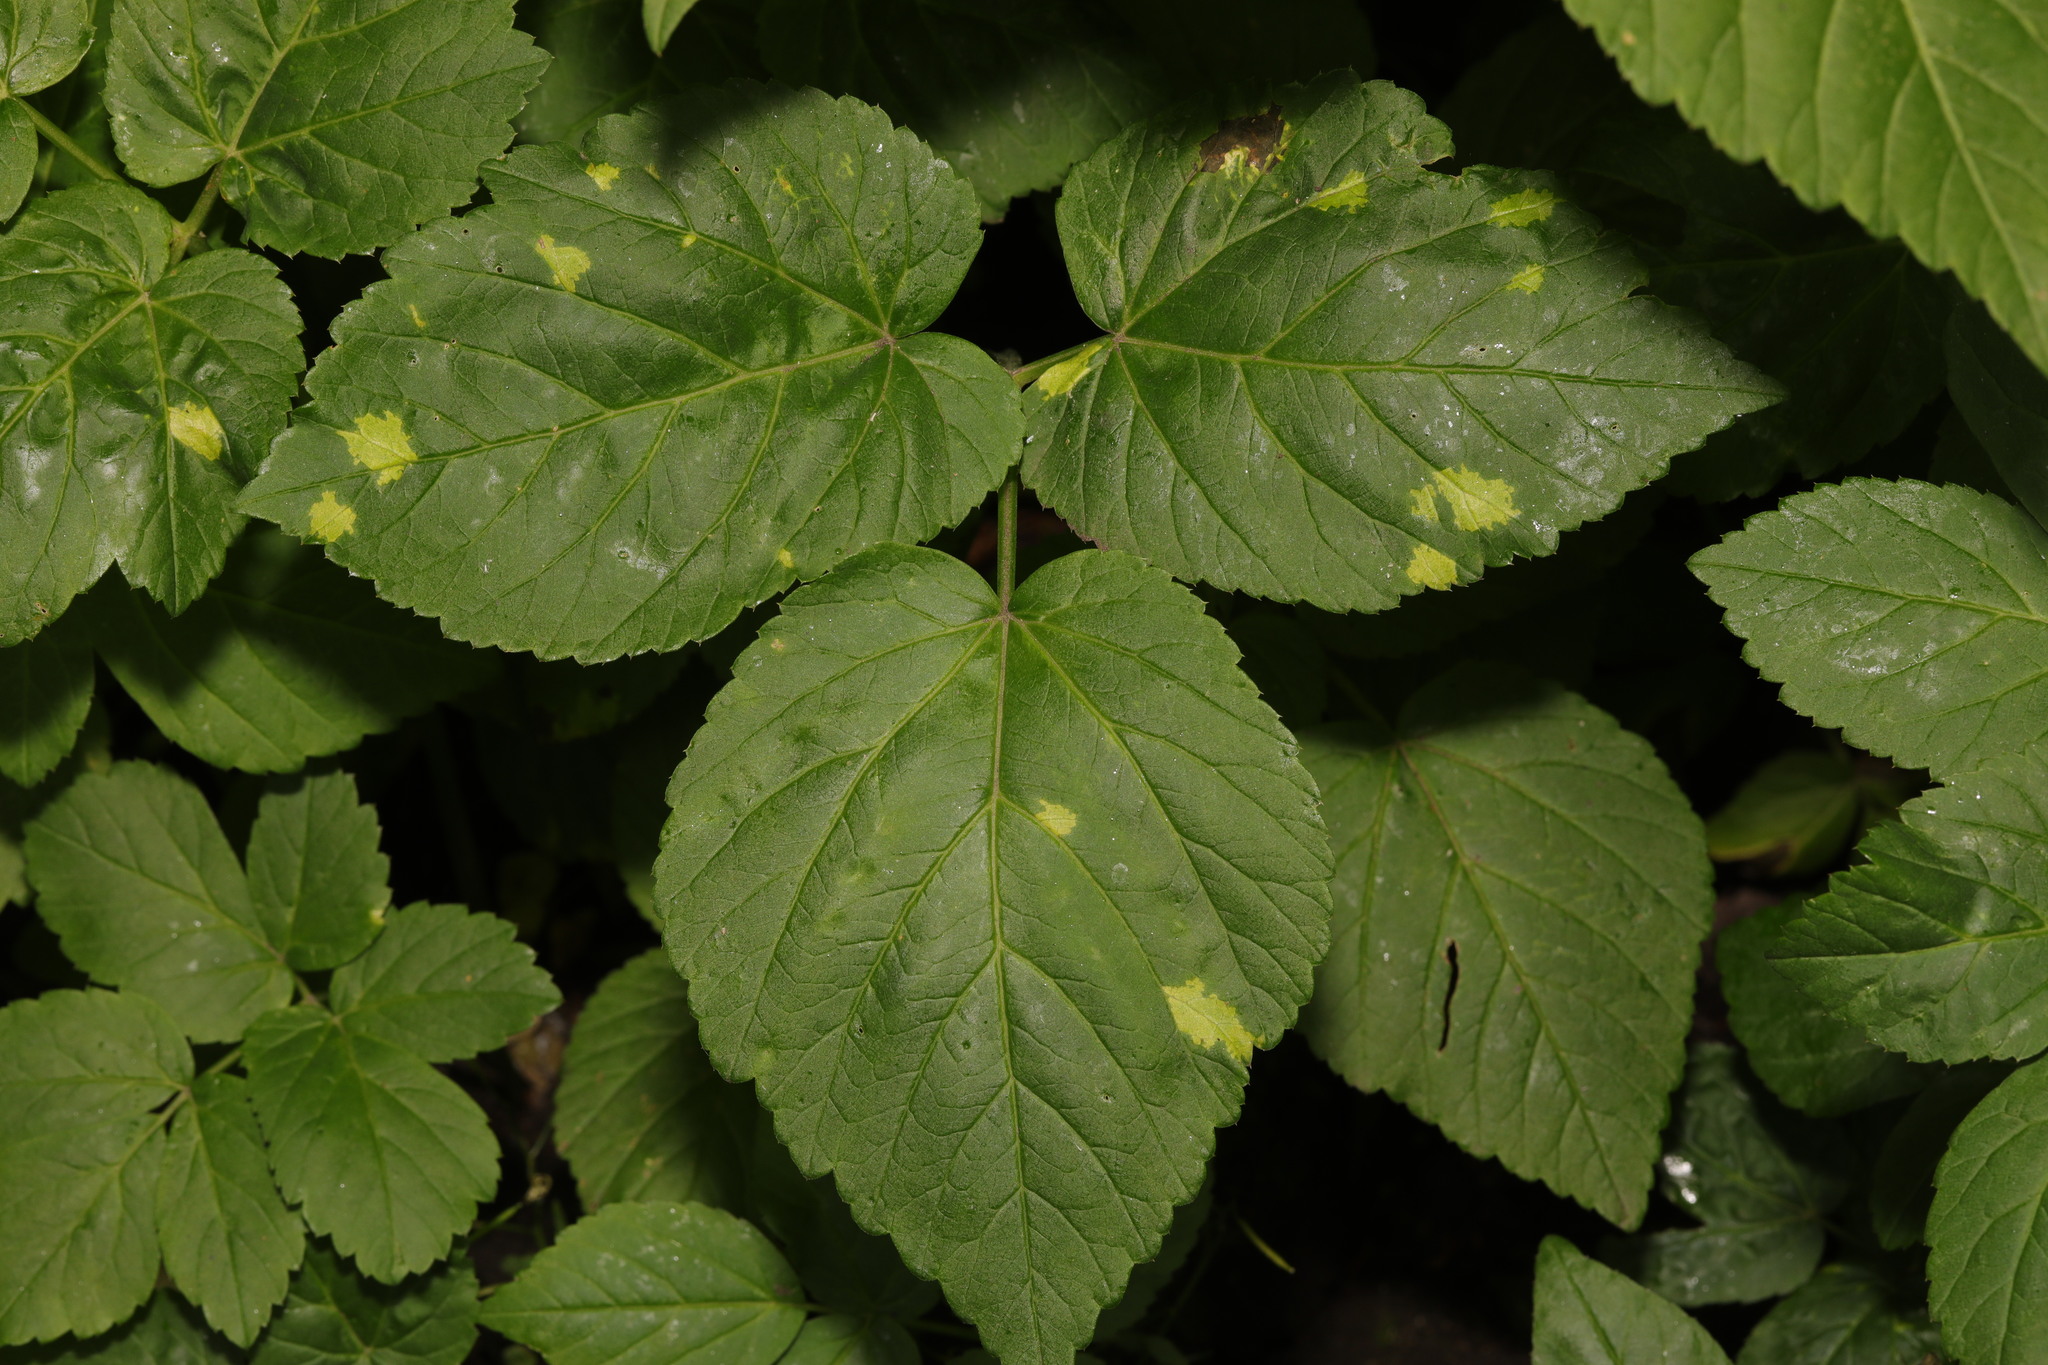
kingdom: Chromista
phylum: Oomycota
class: Peronosporea
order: Peronosporales
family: Peronosporaceae
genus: Peronospora
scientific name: Peronospora crustosa
